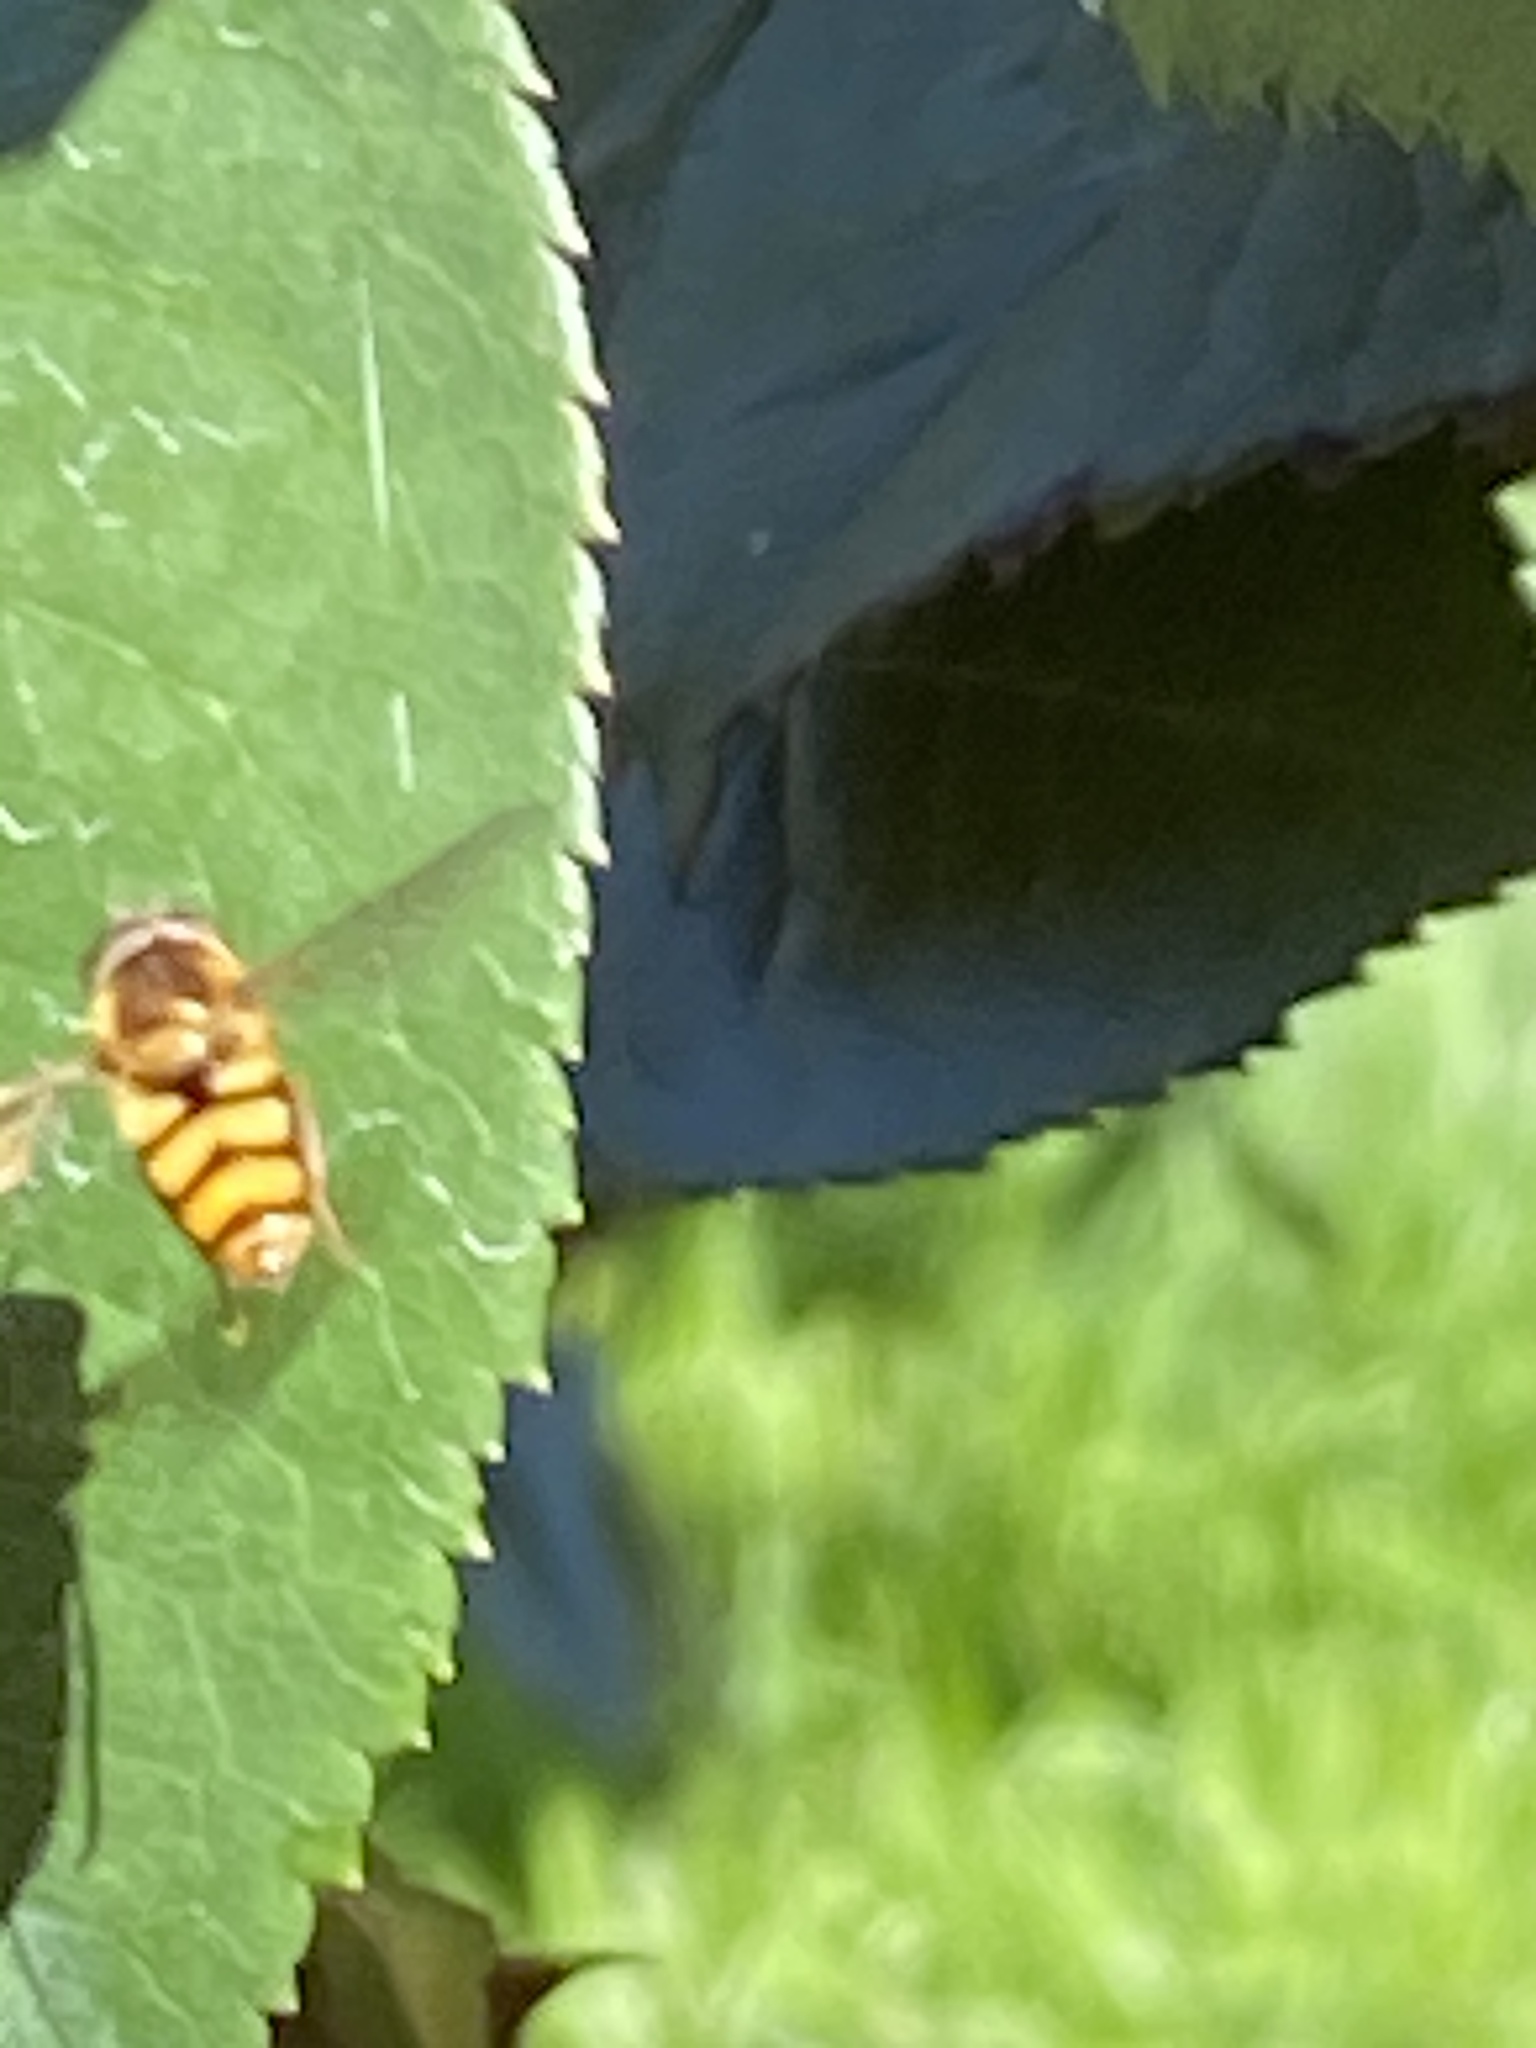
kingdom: Animalia
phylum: Arthropoda
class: Insecta
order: Diptera
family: Syrphidae
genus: Eupeodes
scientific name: Eupeodes latifasciatus
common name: Variable aphideater
